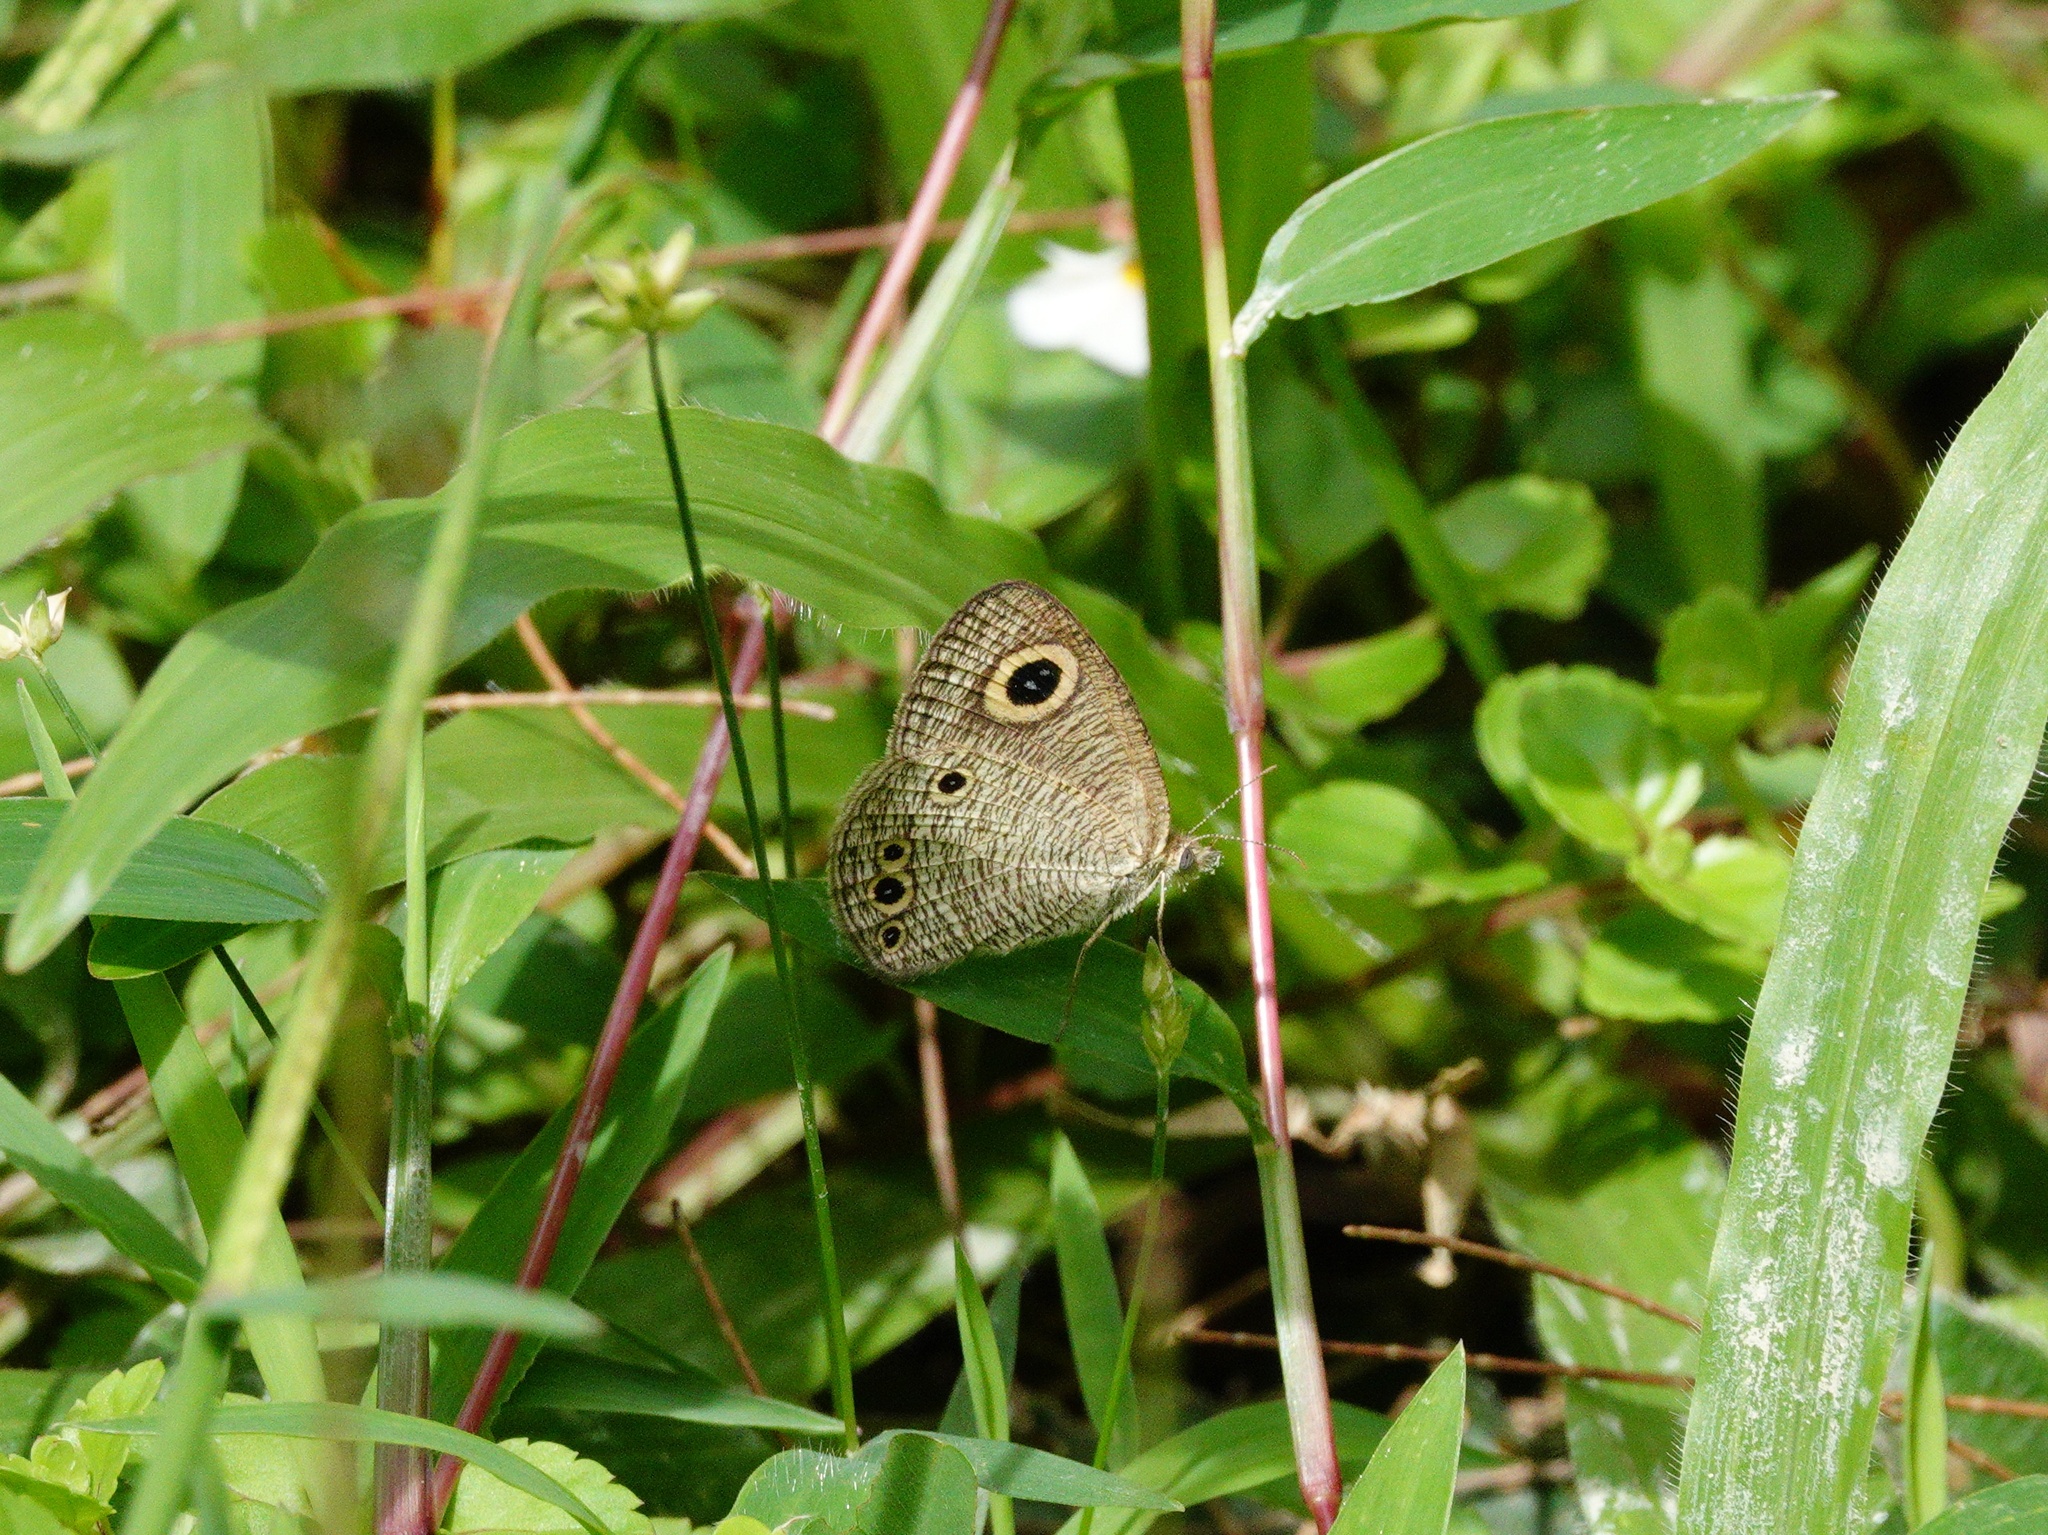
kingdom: Animalia
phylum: Arthropoda
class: Insecta
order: Lepidoptera
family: Nymphalidae
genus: Ypthima
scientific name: Ypthima huebneri
